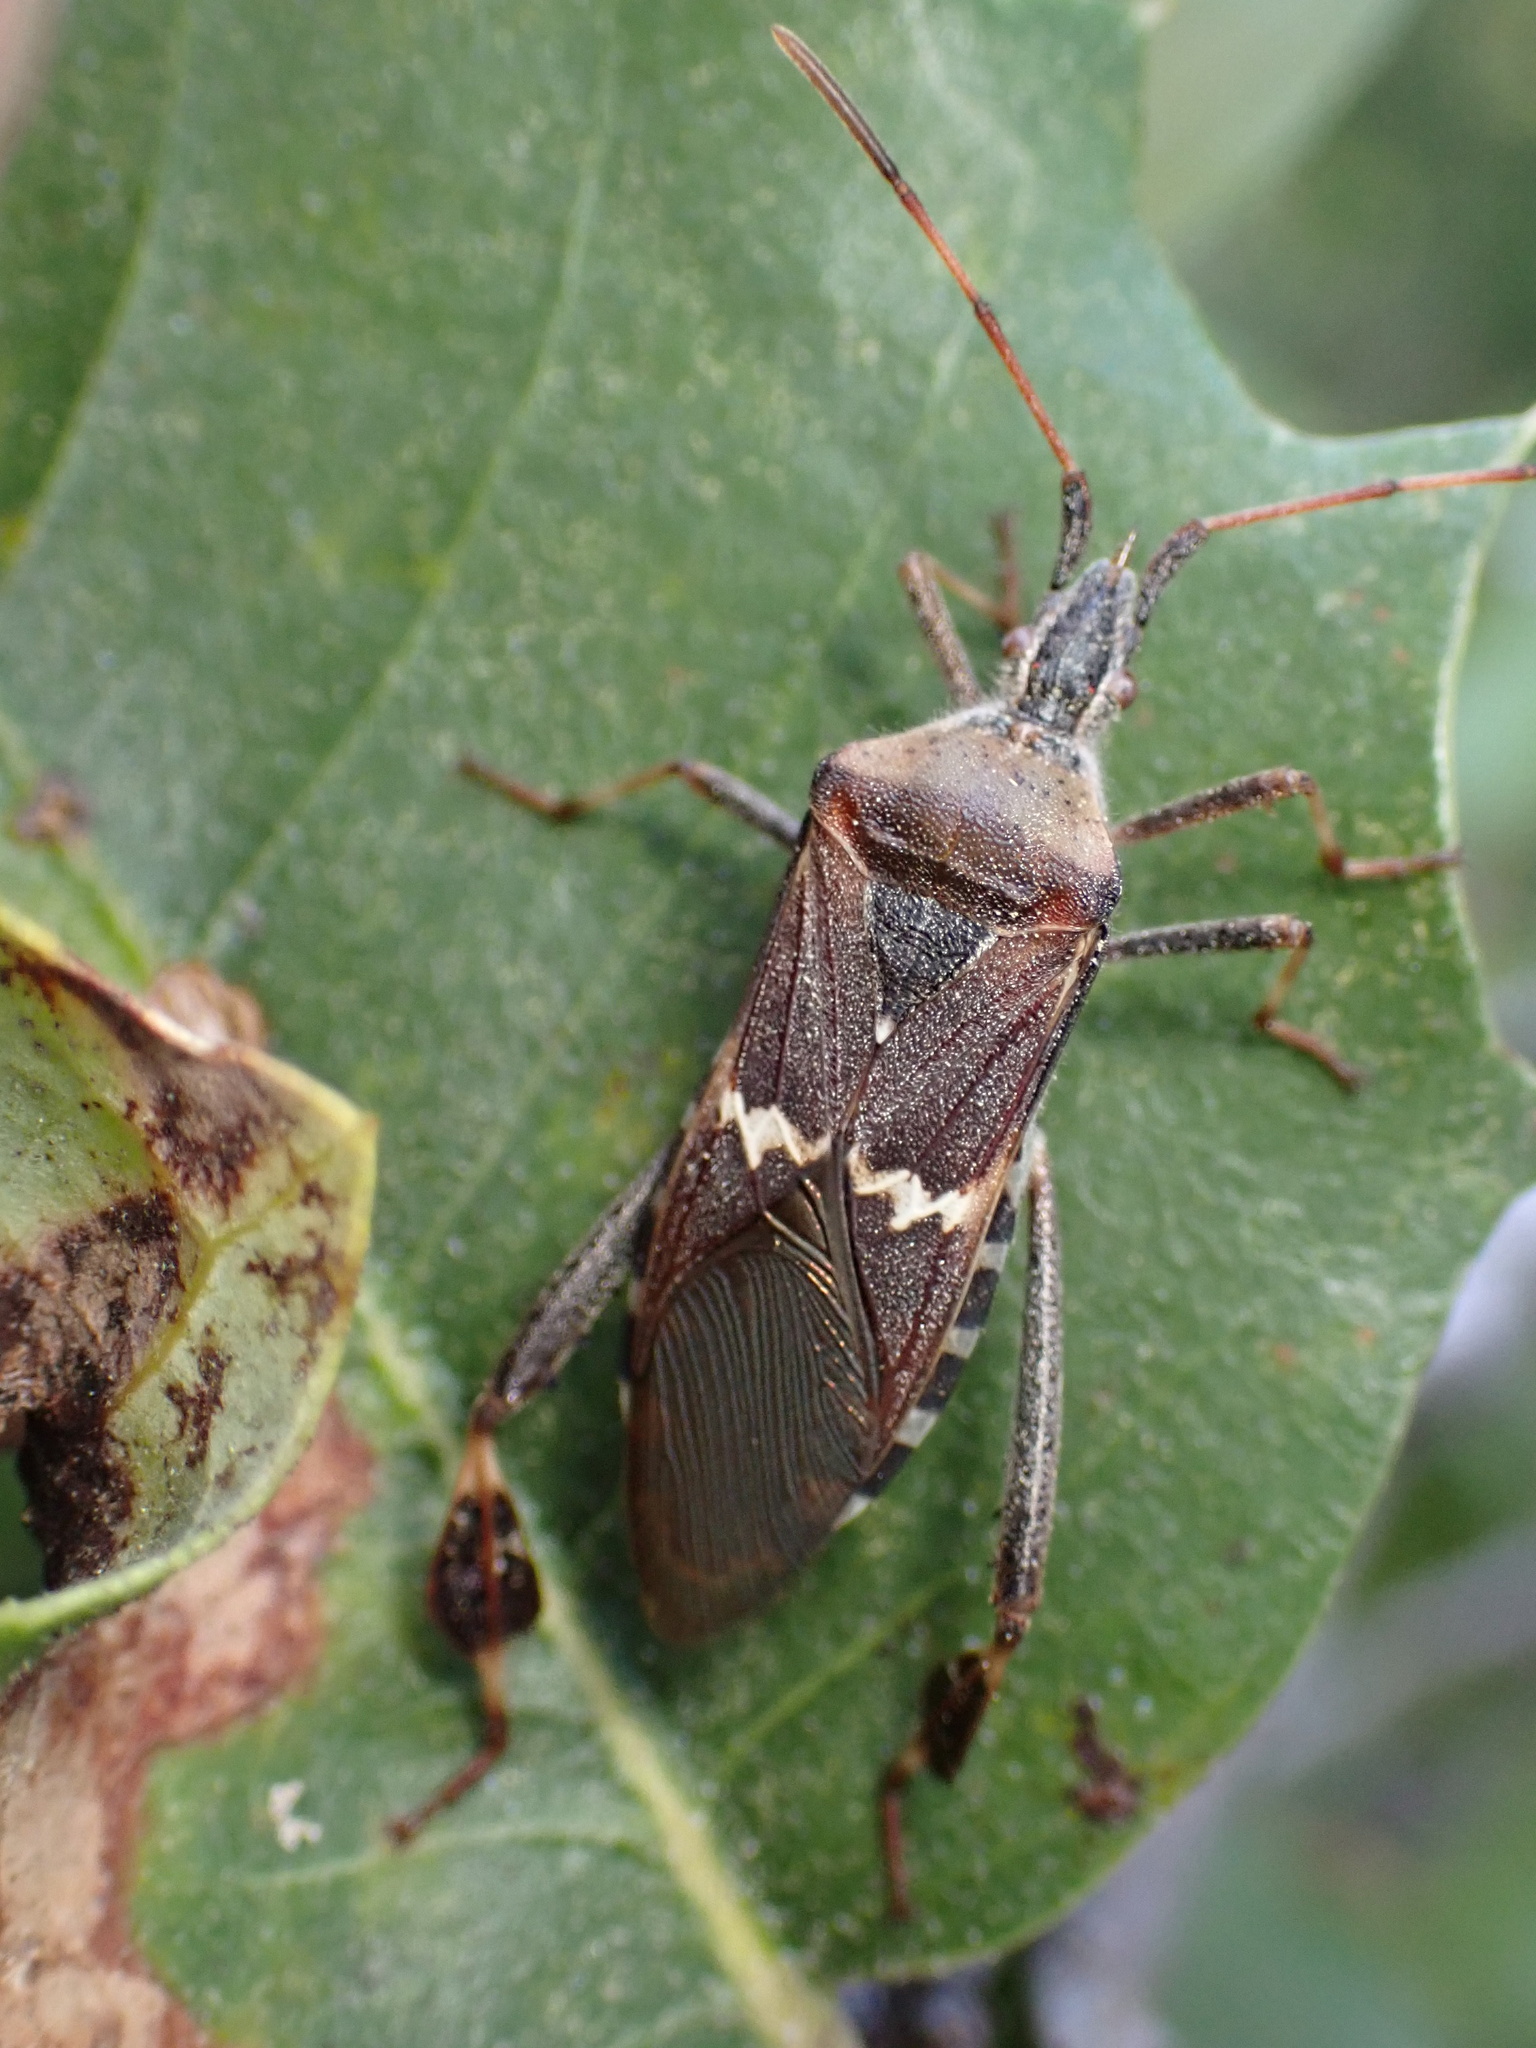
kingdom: Animalia
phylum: Arthropoda
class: Insecta
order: Hemiptera
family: Coreidae
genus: Leptoglossus
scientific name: Leptoglossus clypealis
